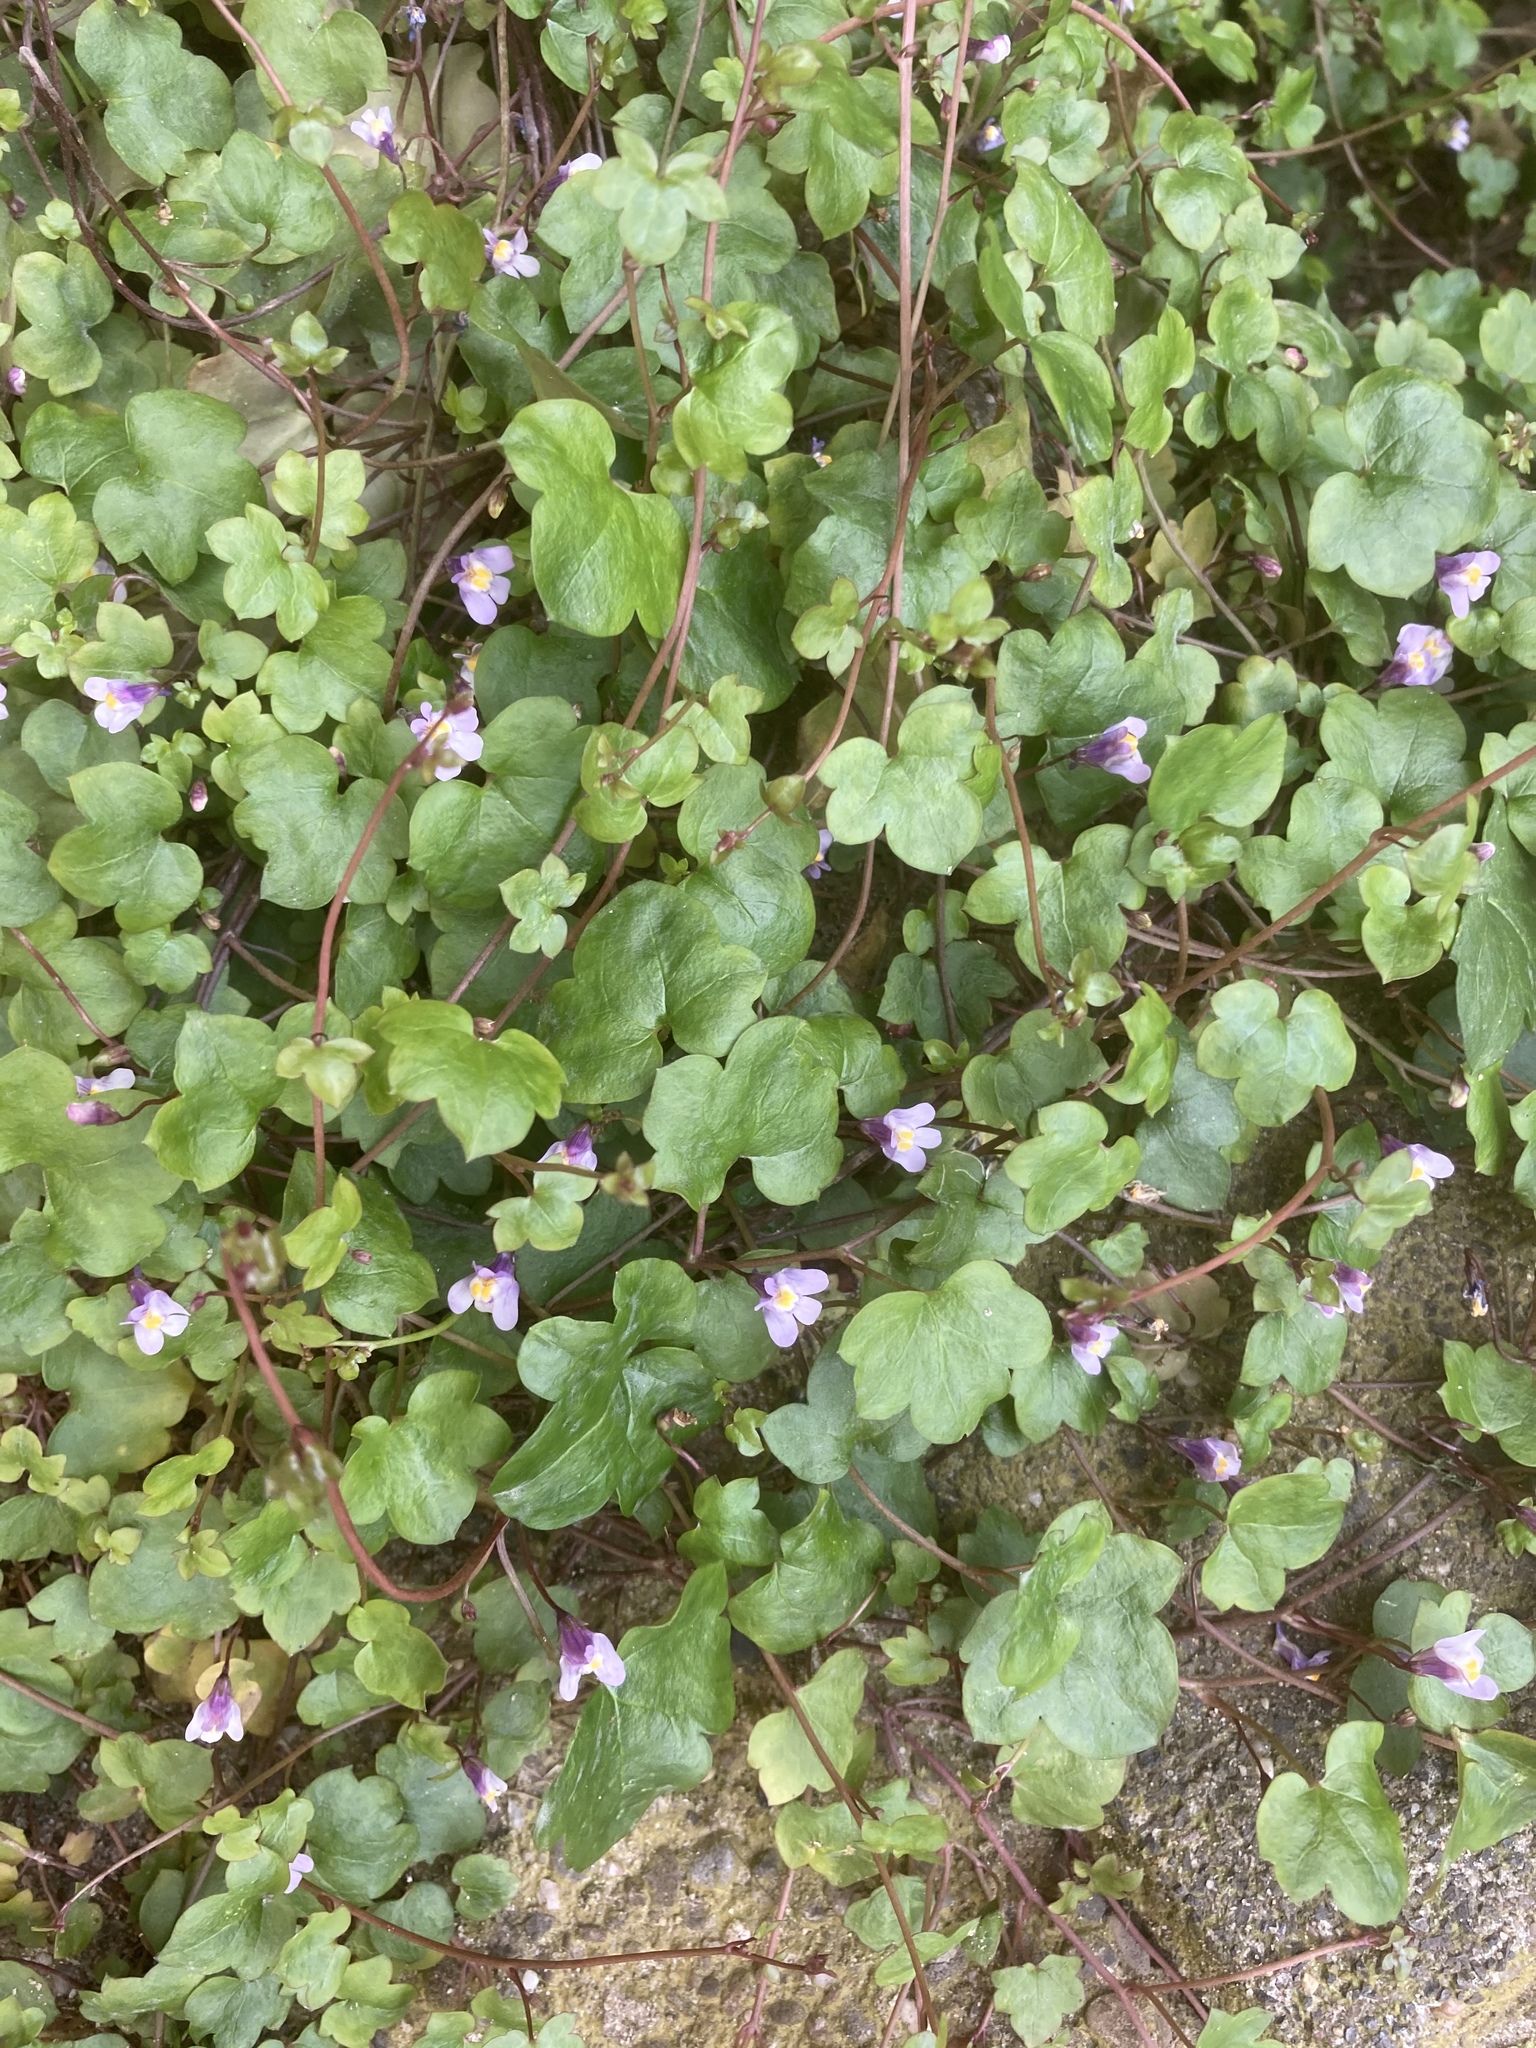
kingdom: Plantae
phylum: Tracheophyta
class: Magnoliopsida
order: Lamiales
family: Plantaginaceae
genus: Cymbalaria
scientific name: Cymbalaria muralis
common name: Ivy-leaved toadflax
